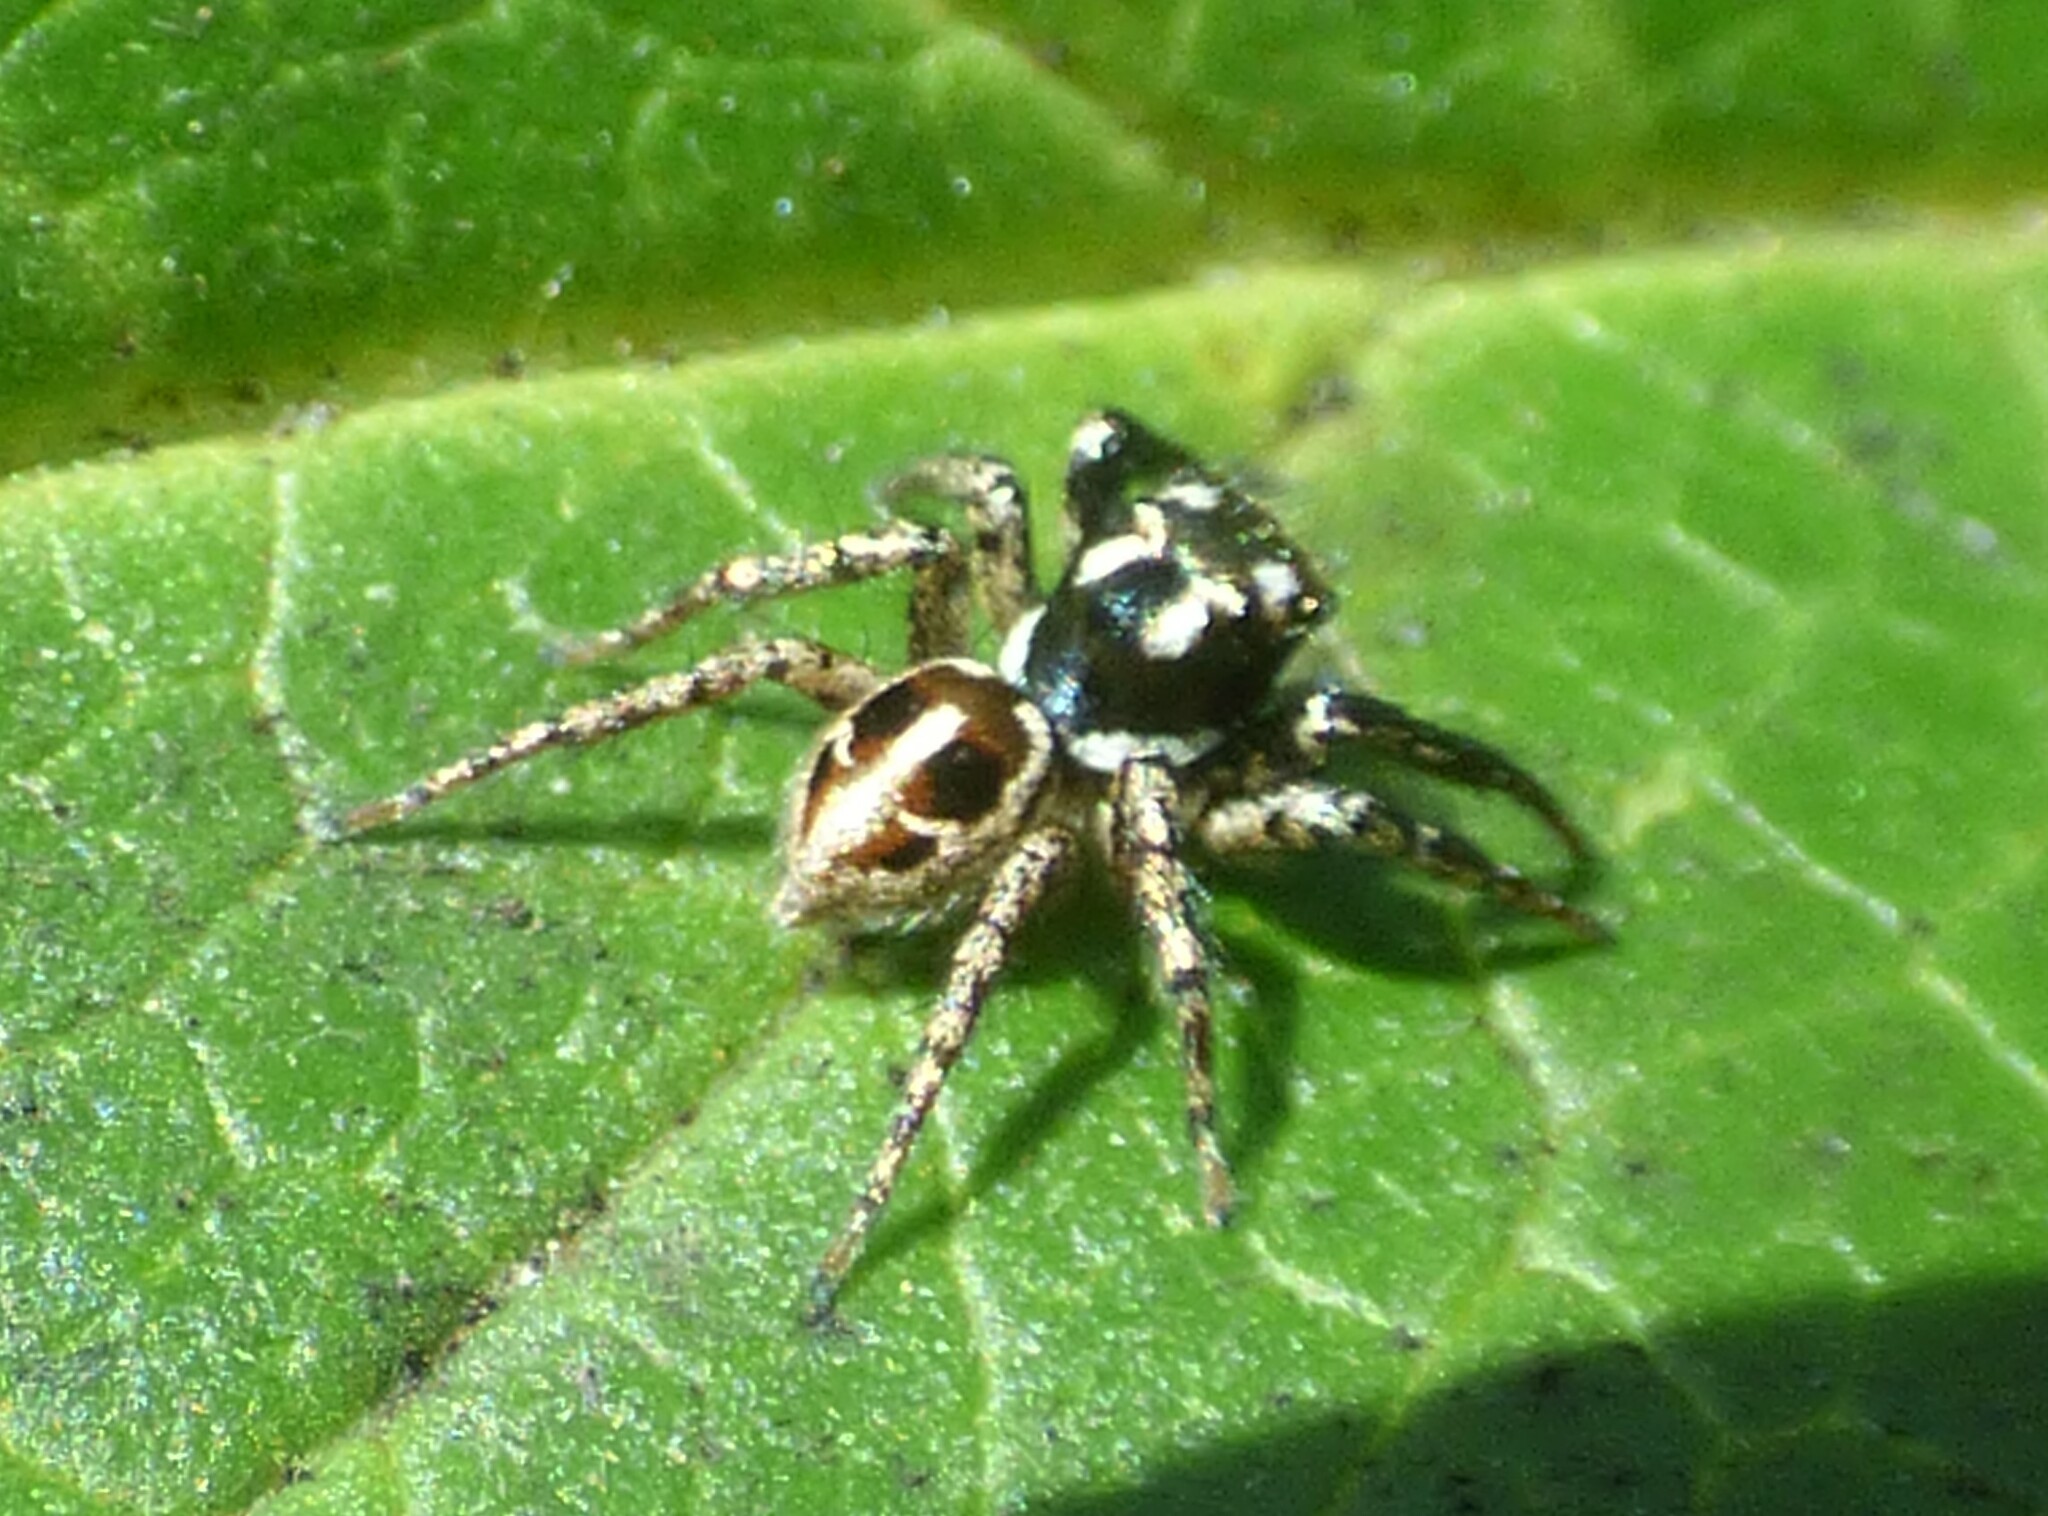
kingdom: Animalia
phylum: Arthropoda
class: Arachnida
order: Araneae
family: Salticidae
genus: Anasaitis
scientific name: Anasaitis canosa
